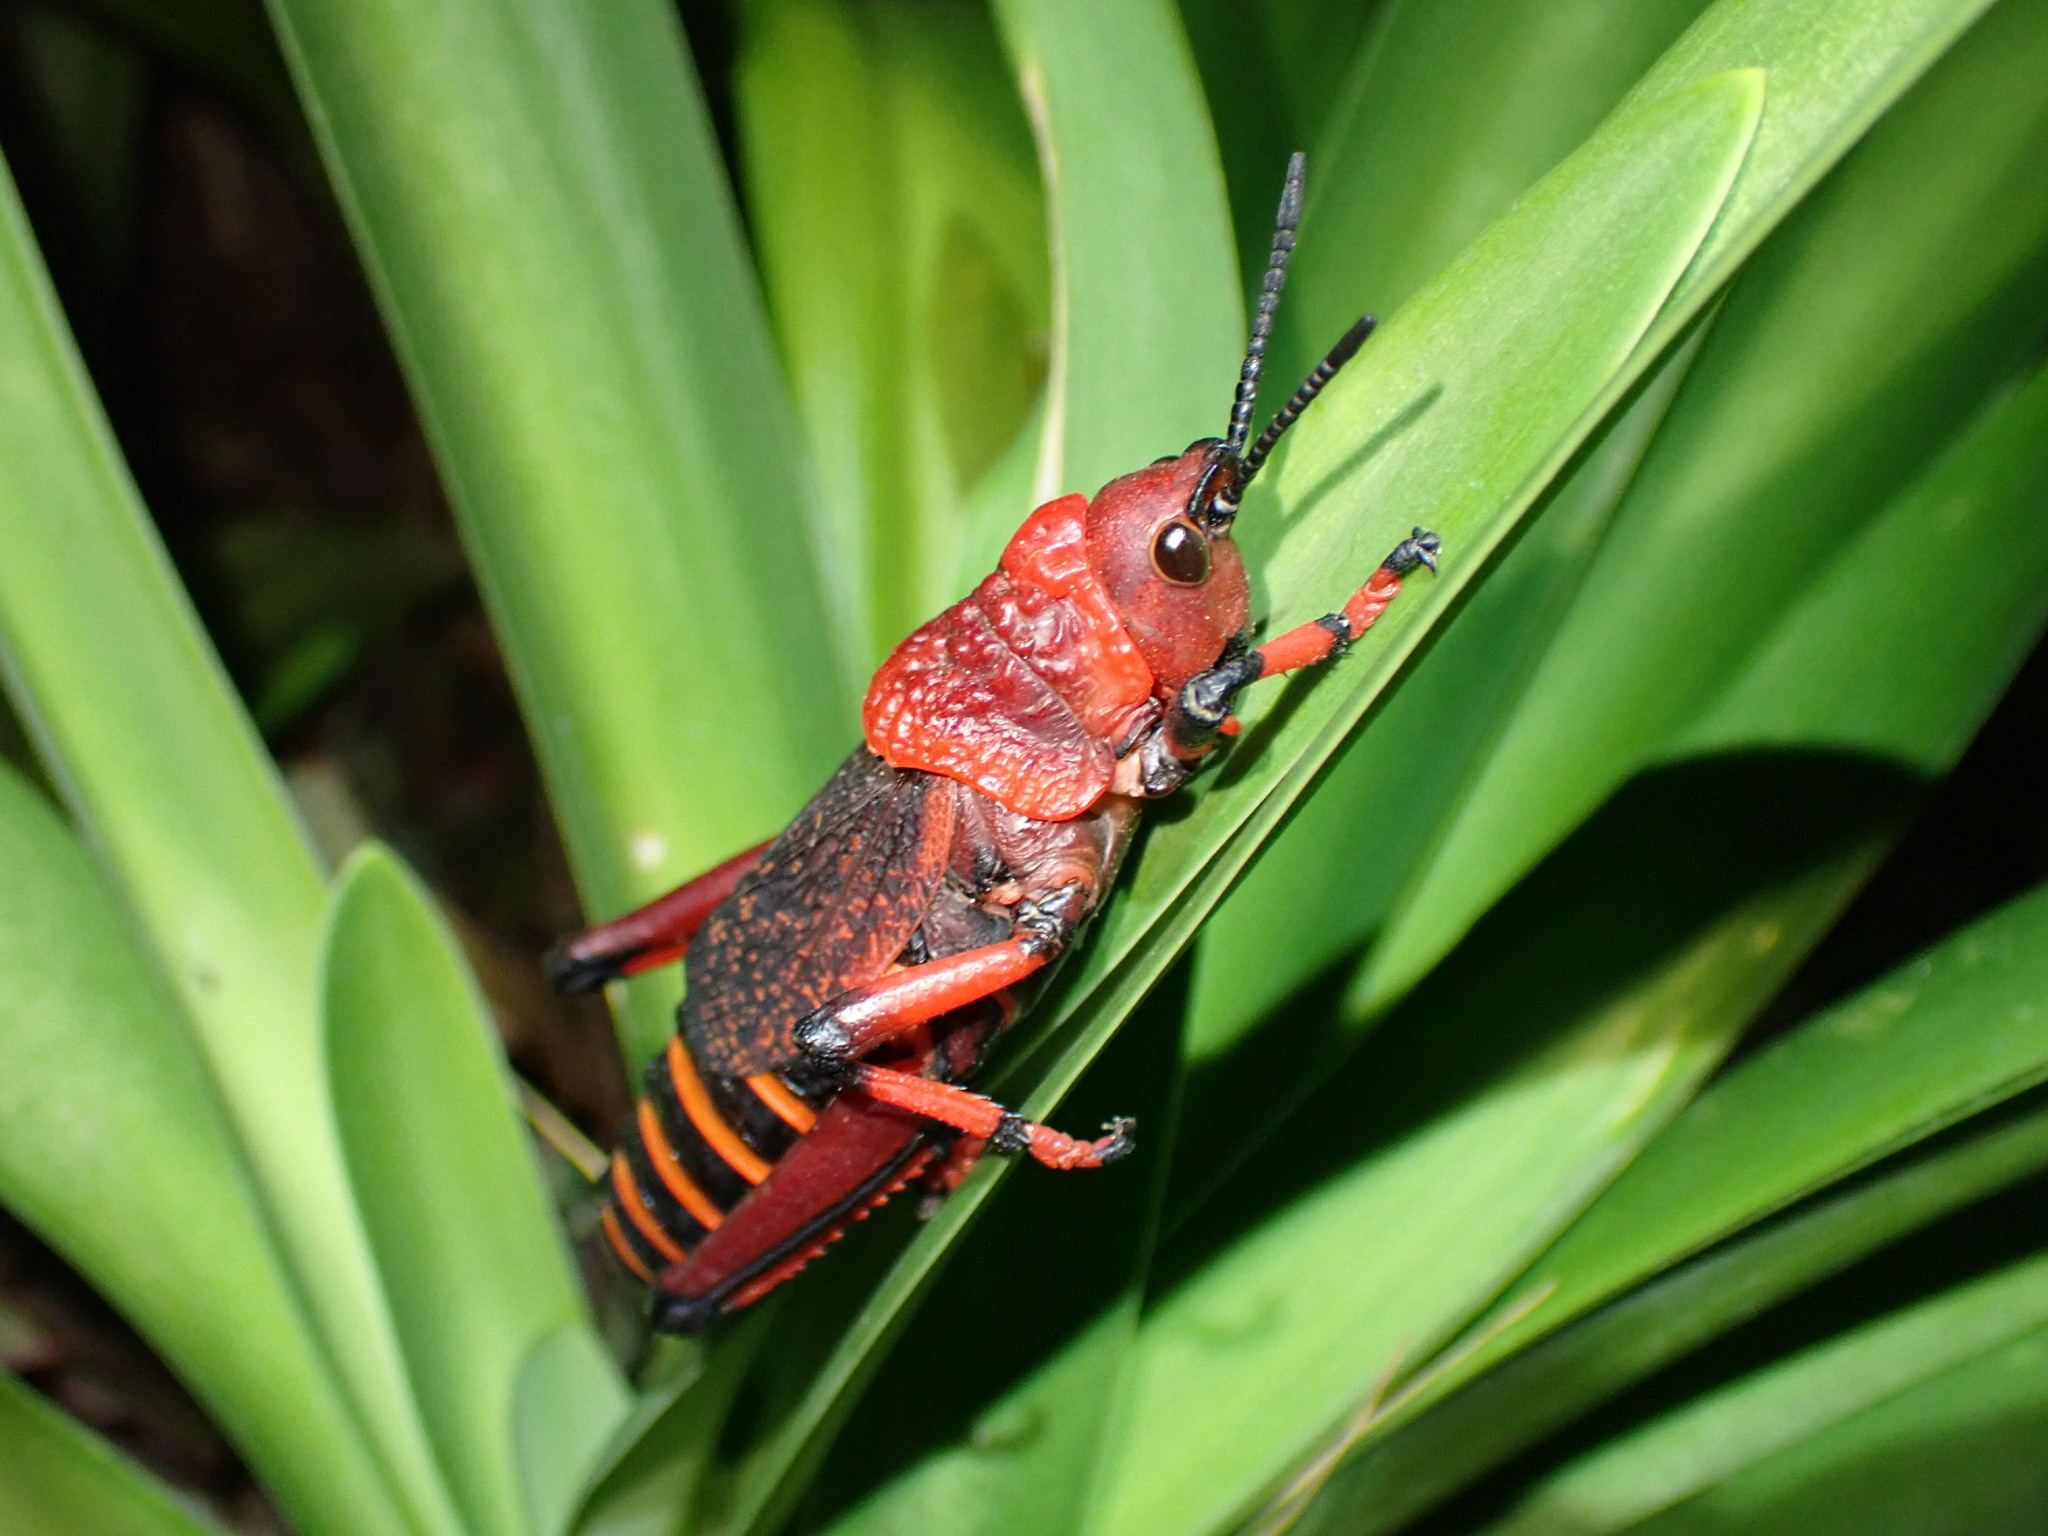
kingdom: Animalia
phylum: Arthropoda
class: Insecta
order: Orthoptera
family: Pyrgomorphidae
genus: Dictyophorus
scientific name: Dictyophorus spumans
